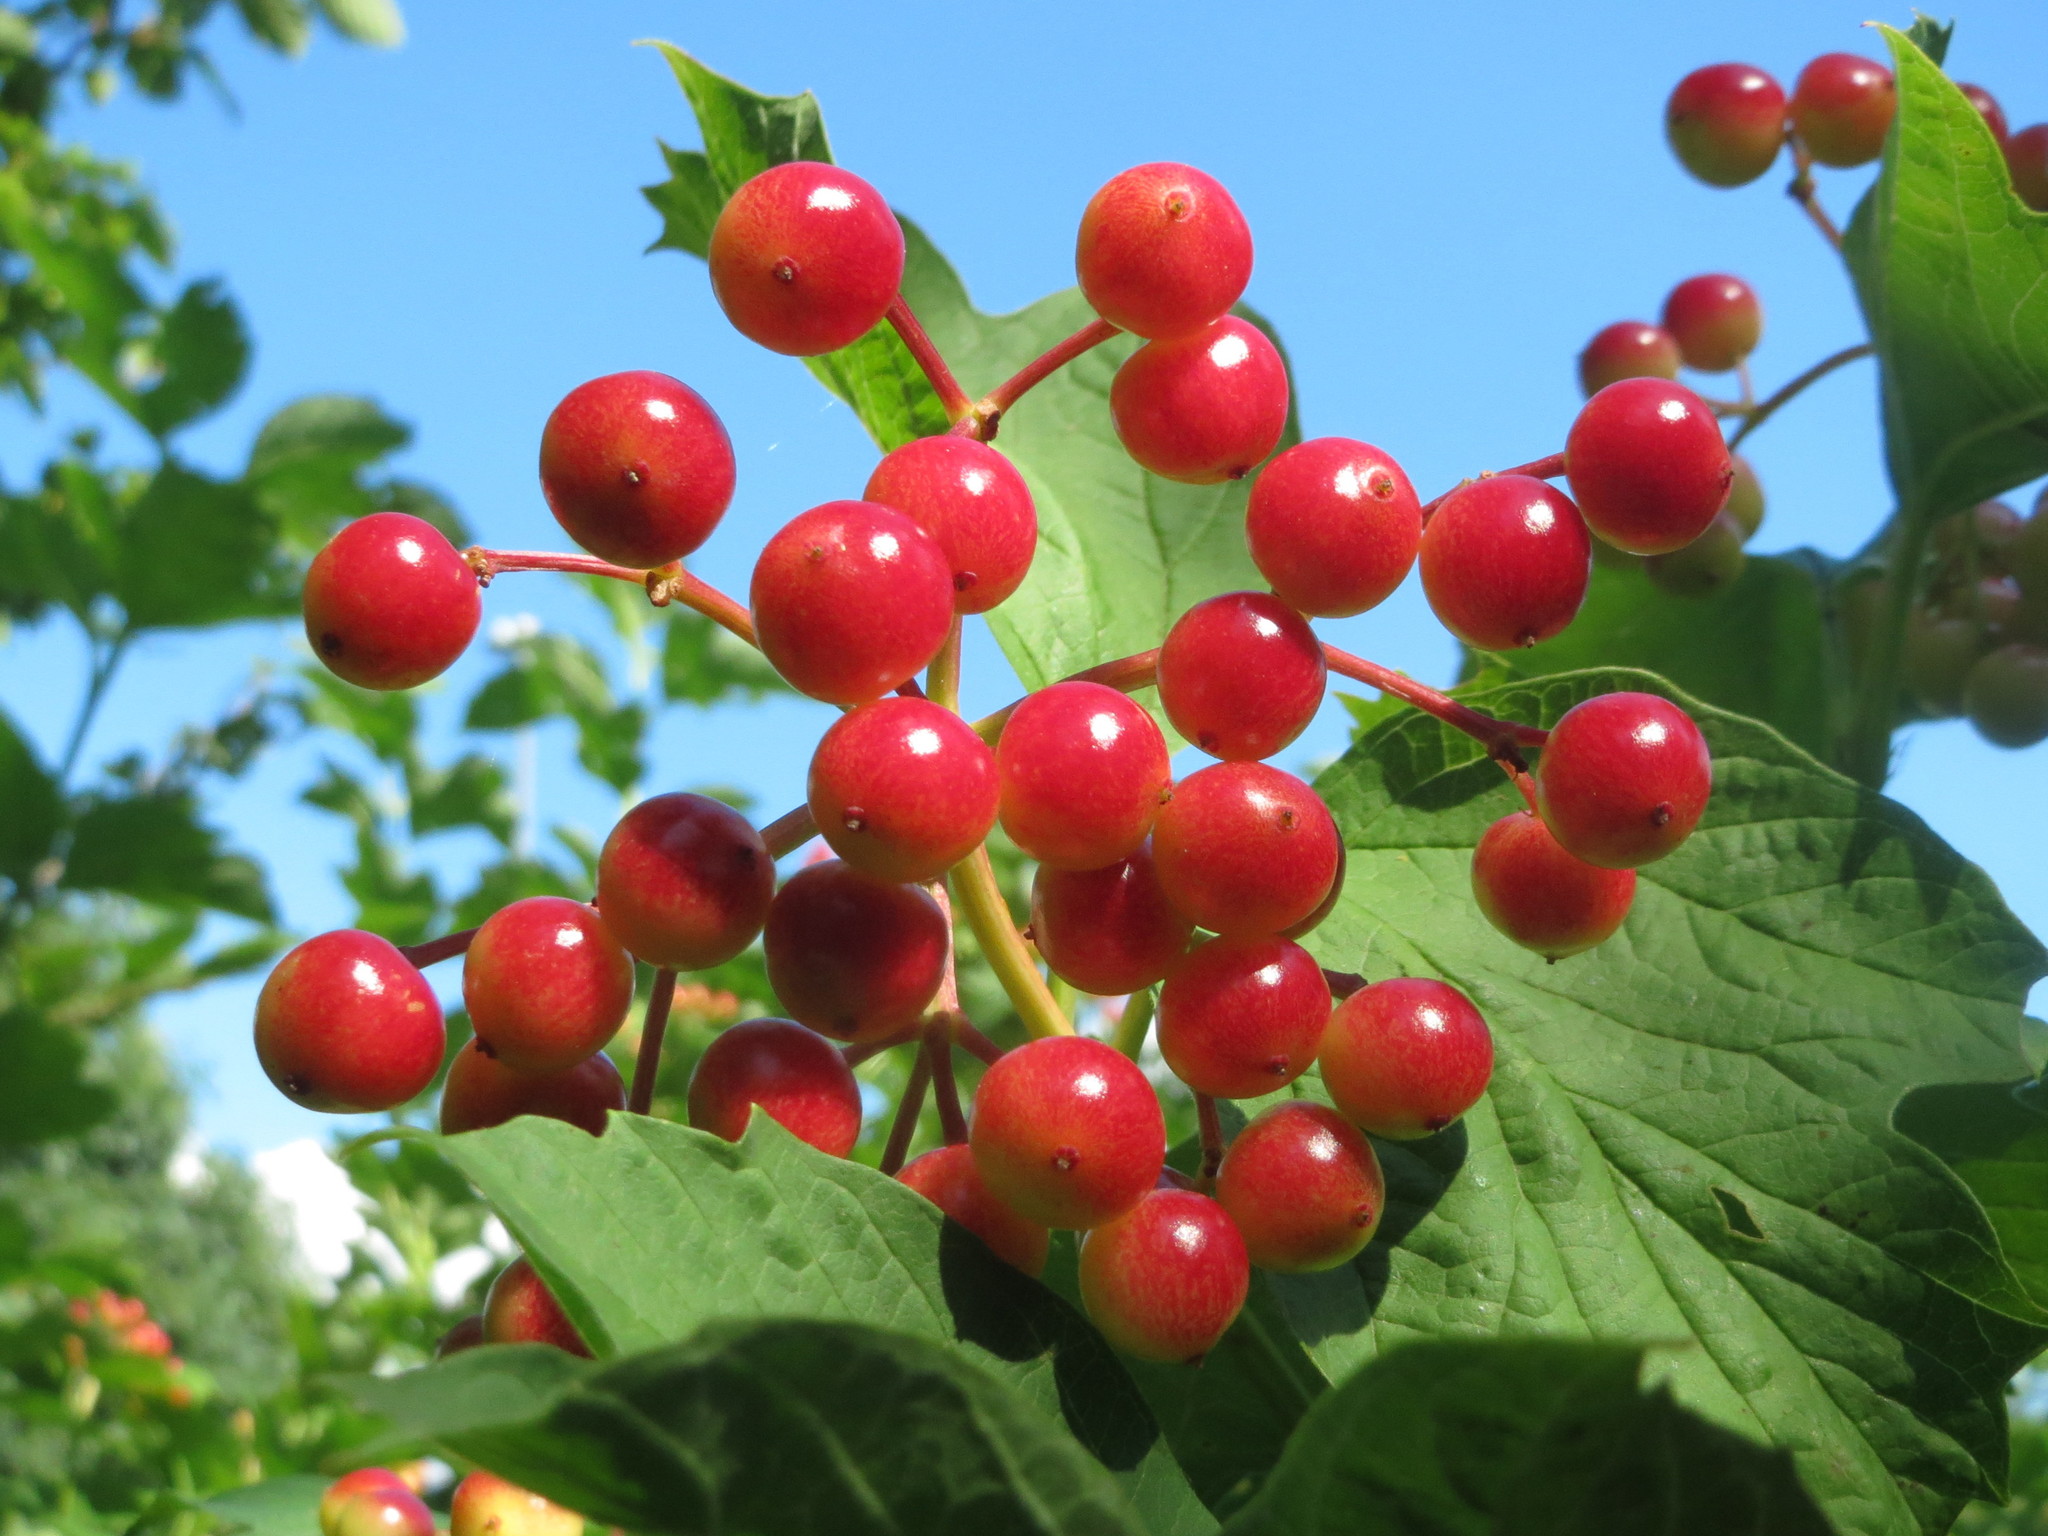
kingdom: Plantae
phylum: Tracheophyta
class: Magnoliopsida
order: Dipsacales
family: Viburnaceae
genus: Viburnum
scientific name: Viburnum opulus
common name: Guelder-rose
